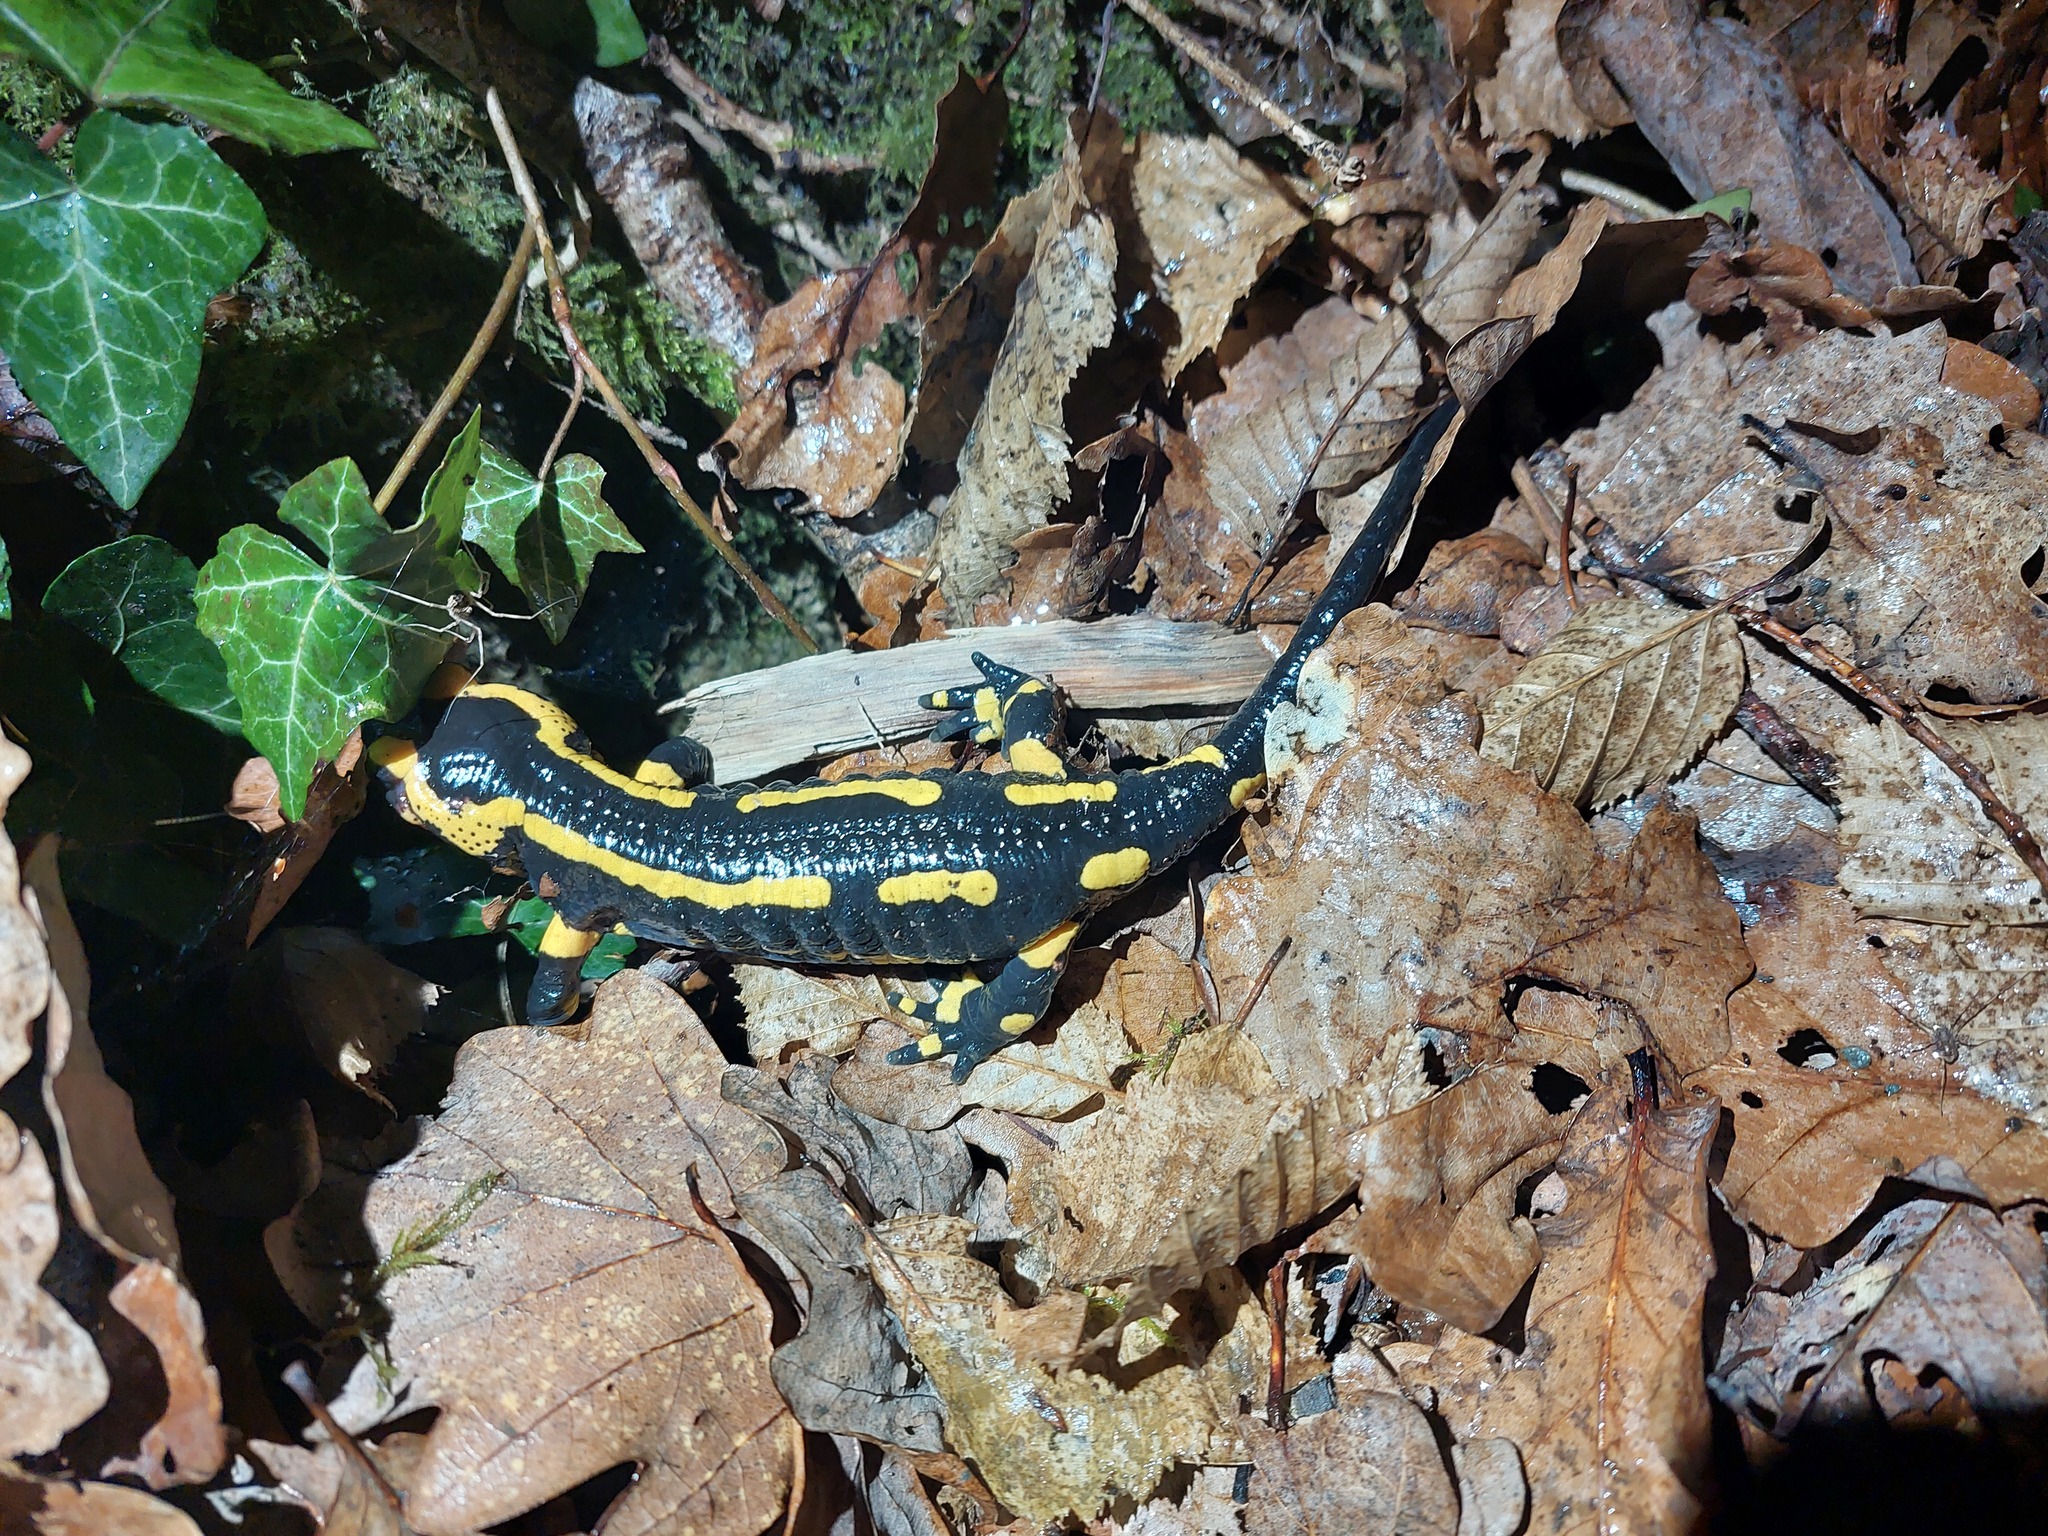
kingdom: Animalia
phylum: Chordata
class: Amphibia
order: Caudata
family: Salamandridae
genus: Salamandra
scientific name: Salamandra salamandra
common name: Fire salamander
